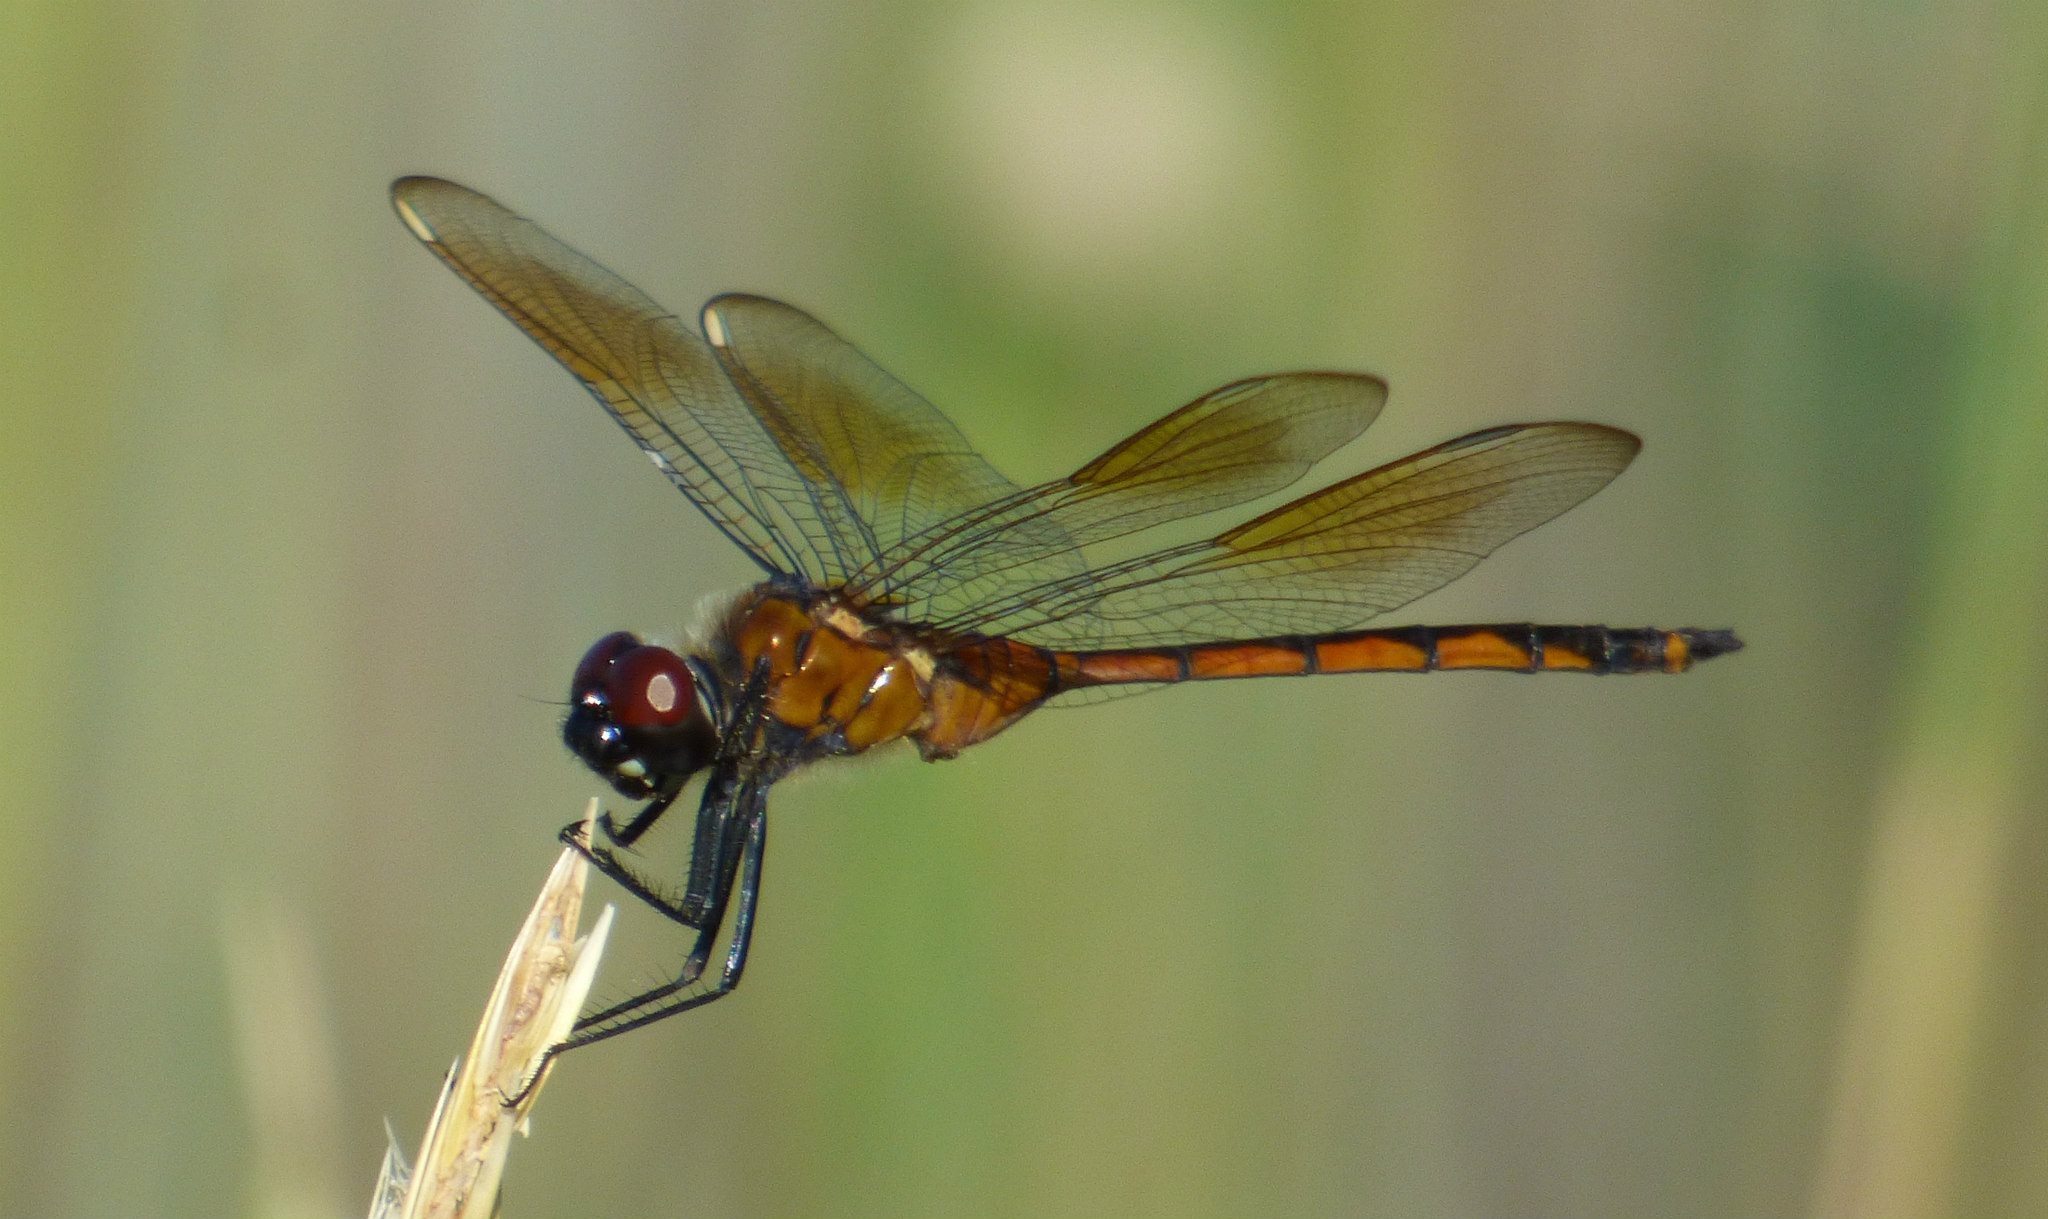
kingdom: Animalia
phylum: Arthropoda
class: Insecta
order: Odonata
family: Libellulidae
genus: Brachymesia
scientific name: Brachymesia gravida
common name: Four-spotted pennant
